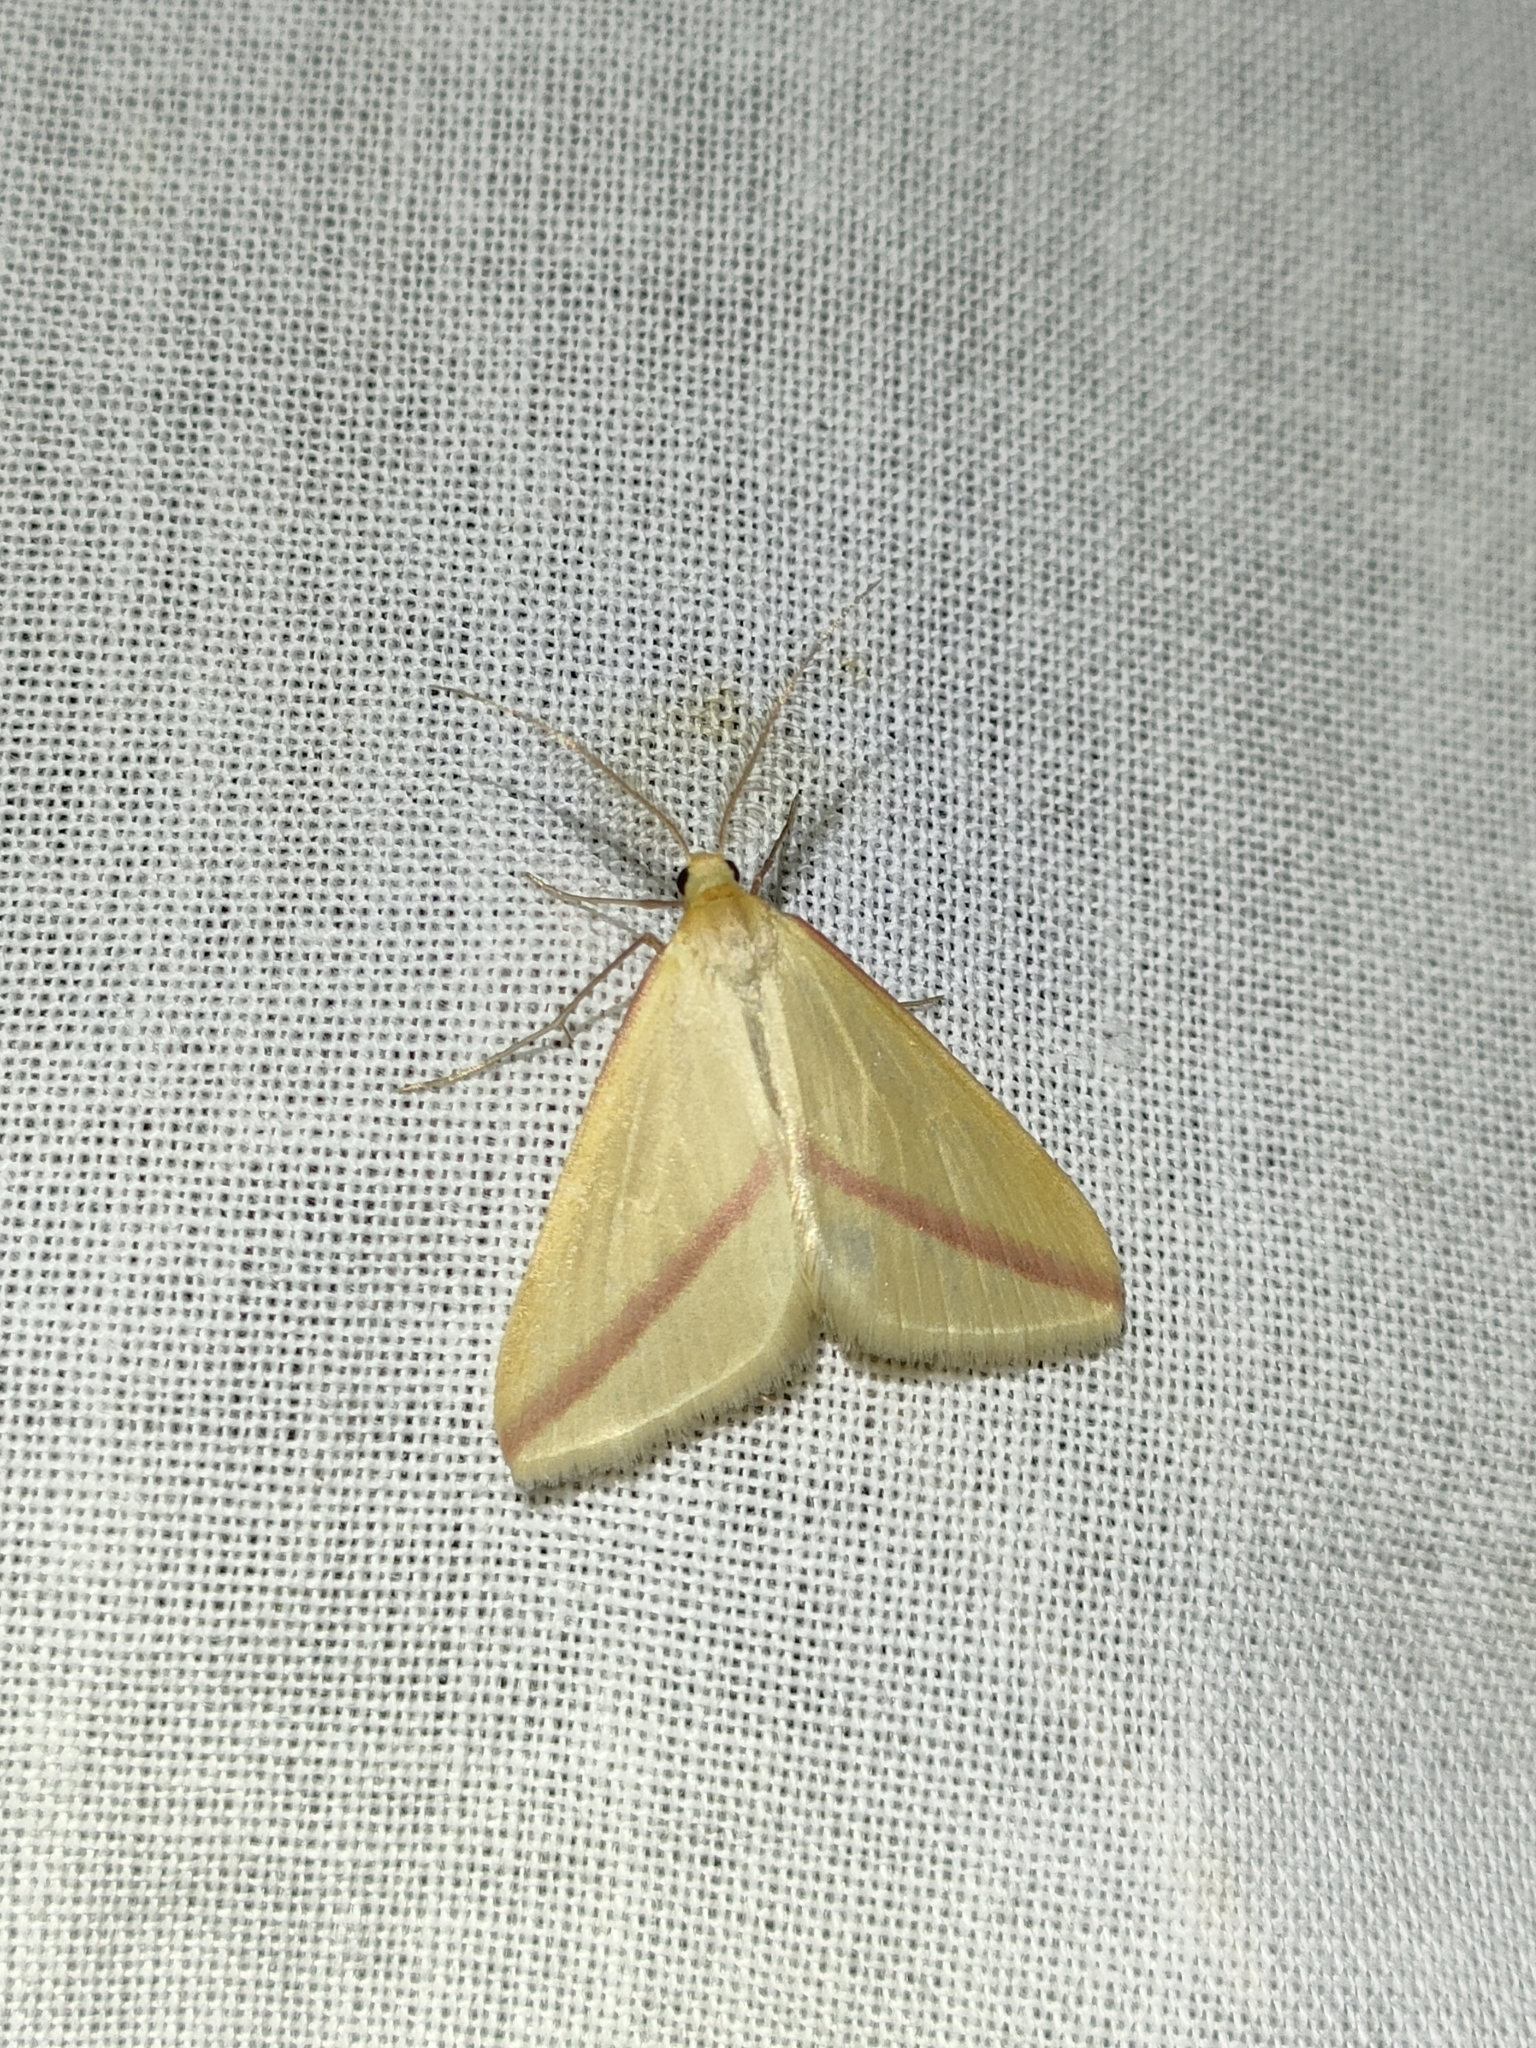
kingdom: Animalia
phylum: Arthropoda
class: Insecta
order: Lepidoptera
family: Geometridae
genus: Rhodometra
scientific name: Rhodometra sacraria
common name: Vestal
